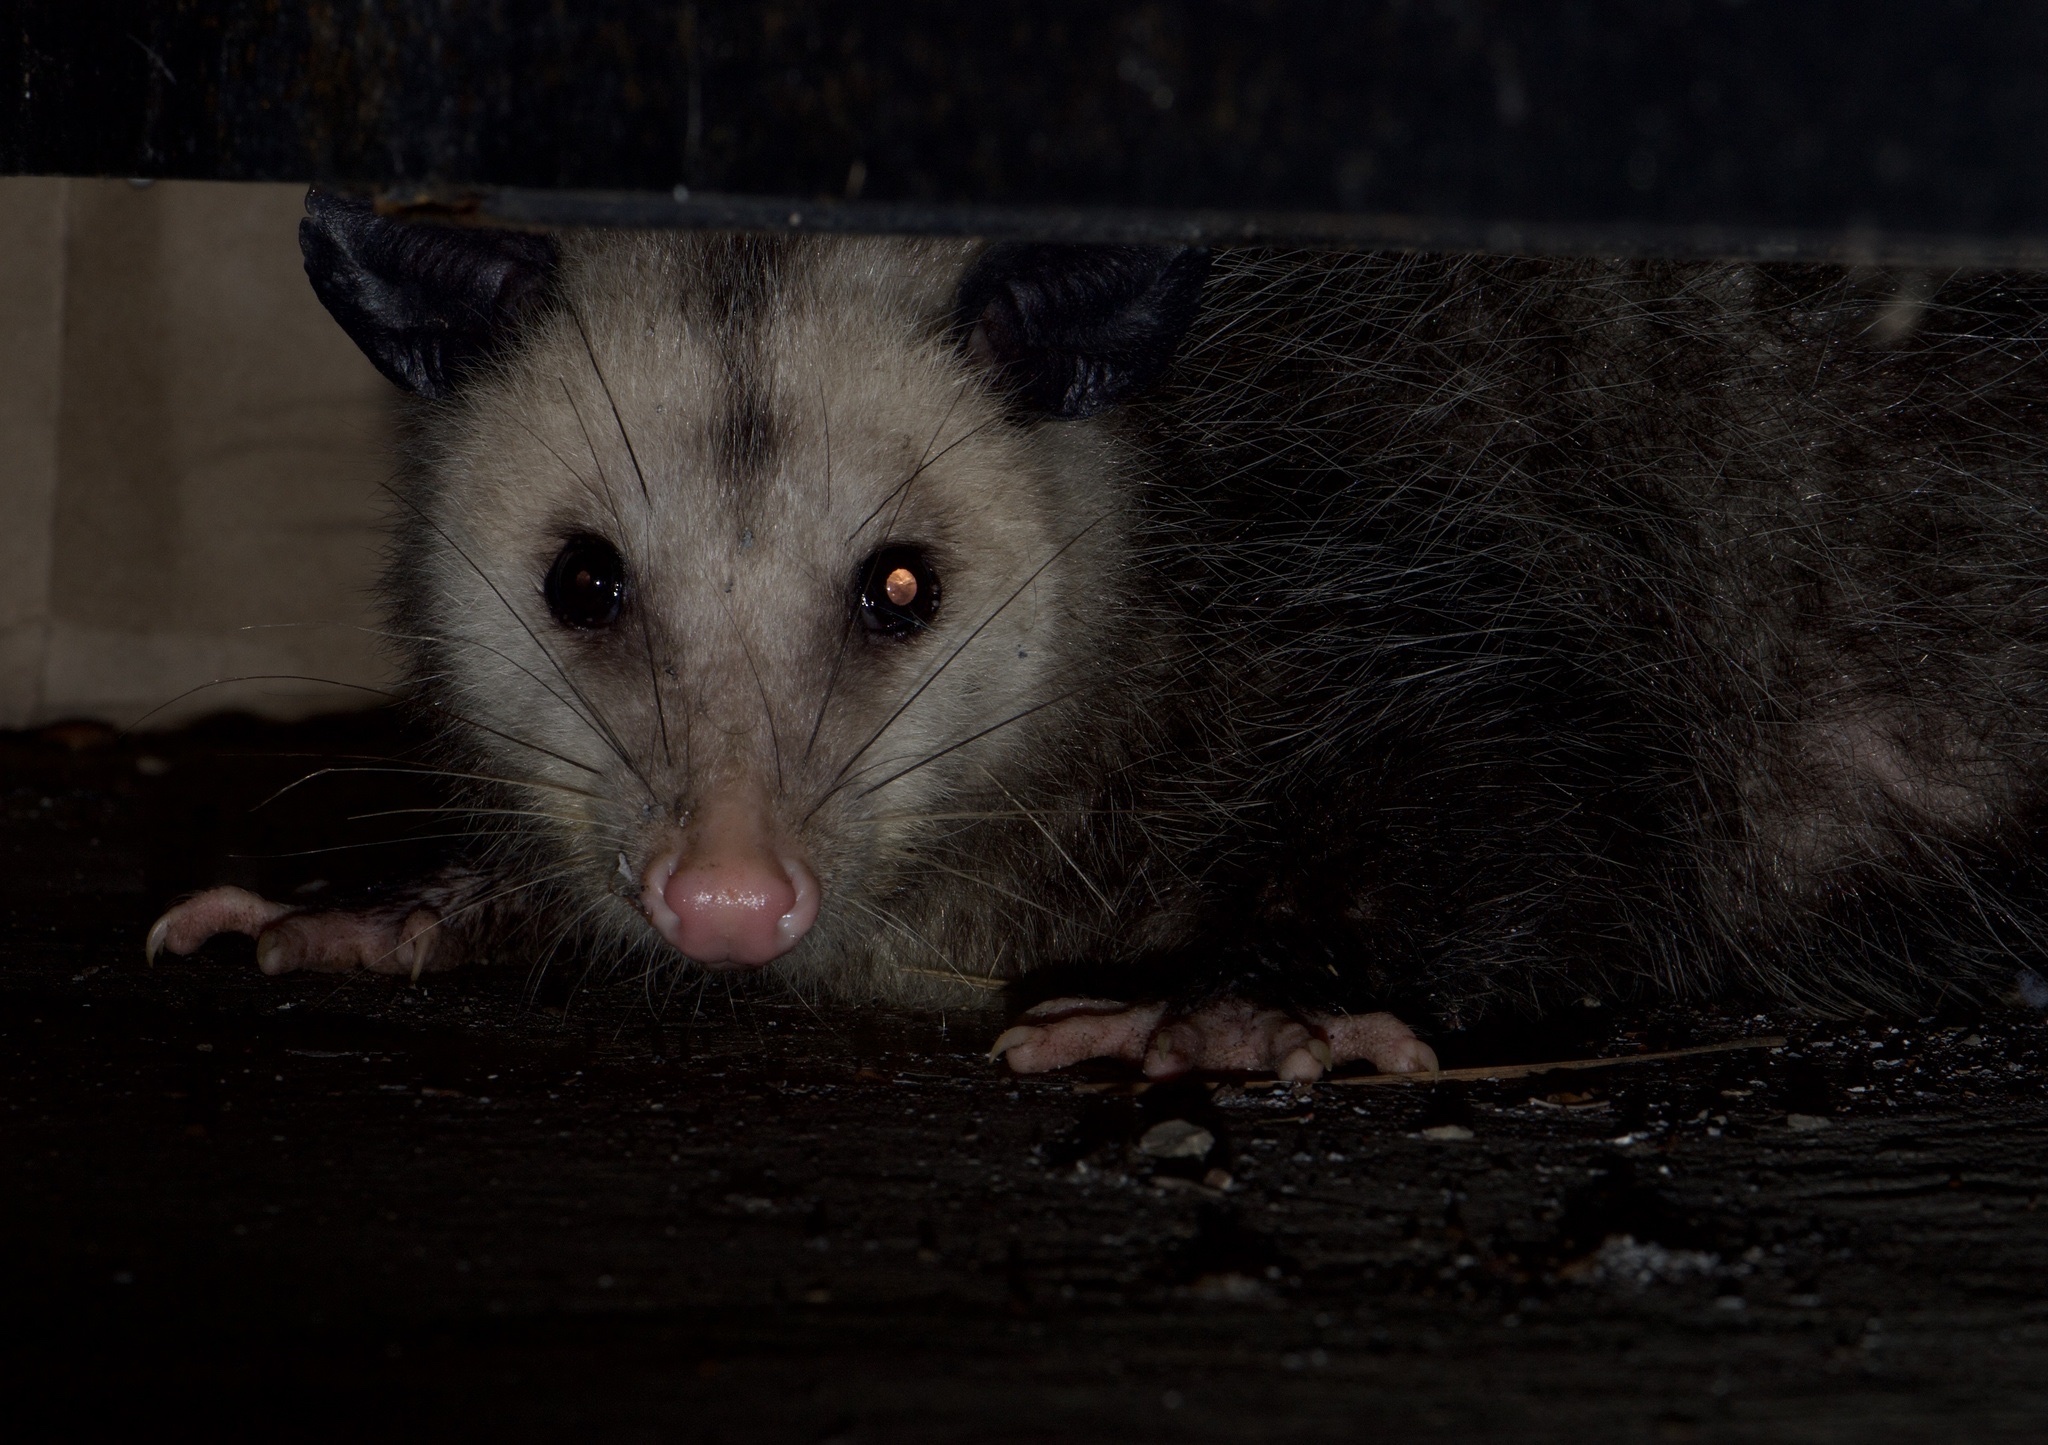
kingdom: Animalia
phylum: Chordata
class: Mammalia
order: Didelphimorphia
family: Didelphidae
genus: Didelphis
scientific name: Didelphis virginiana
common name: Virginia opossum
